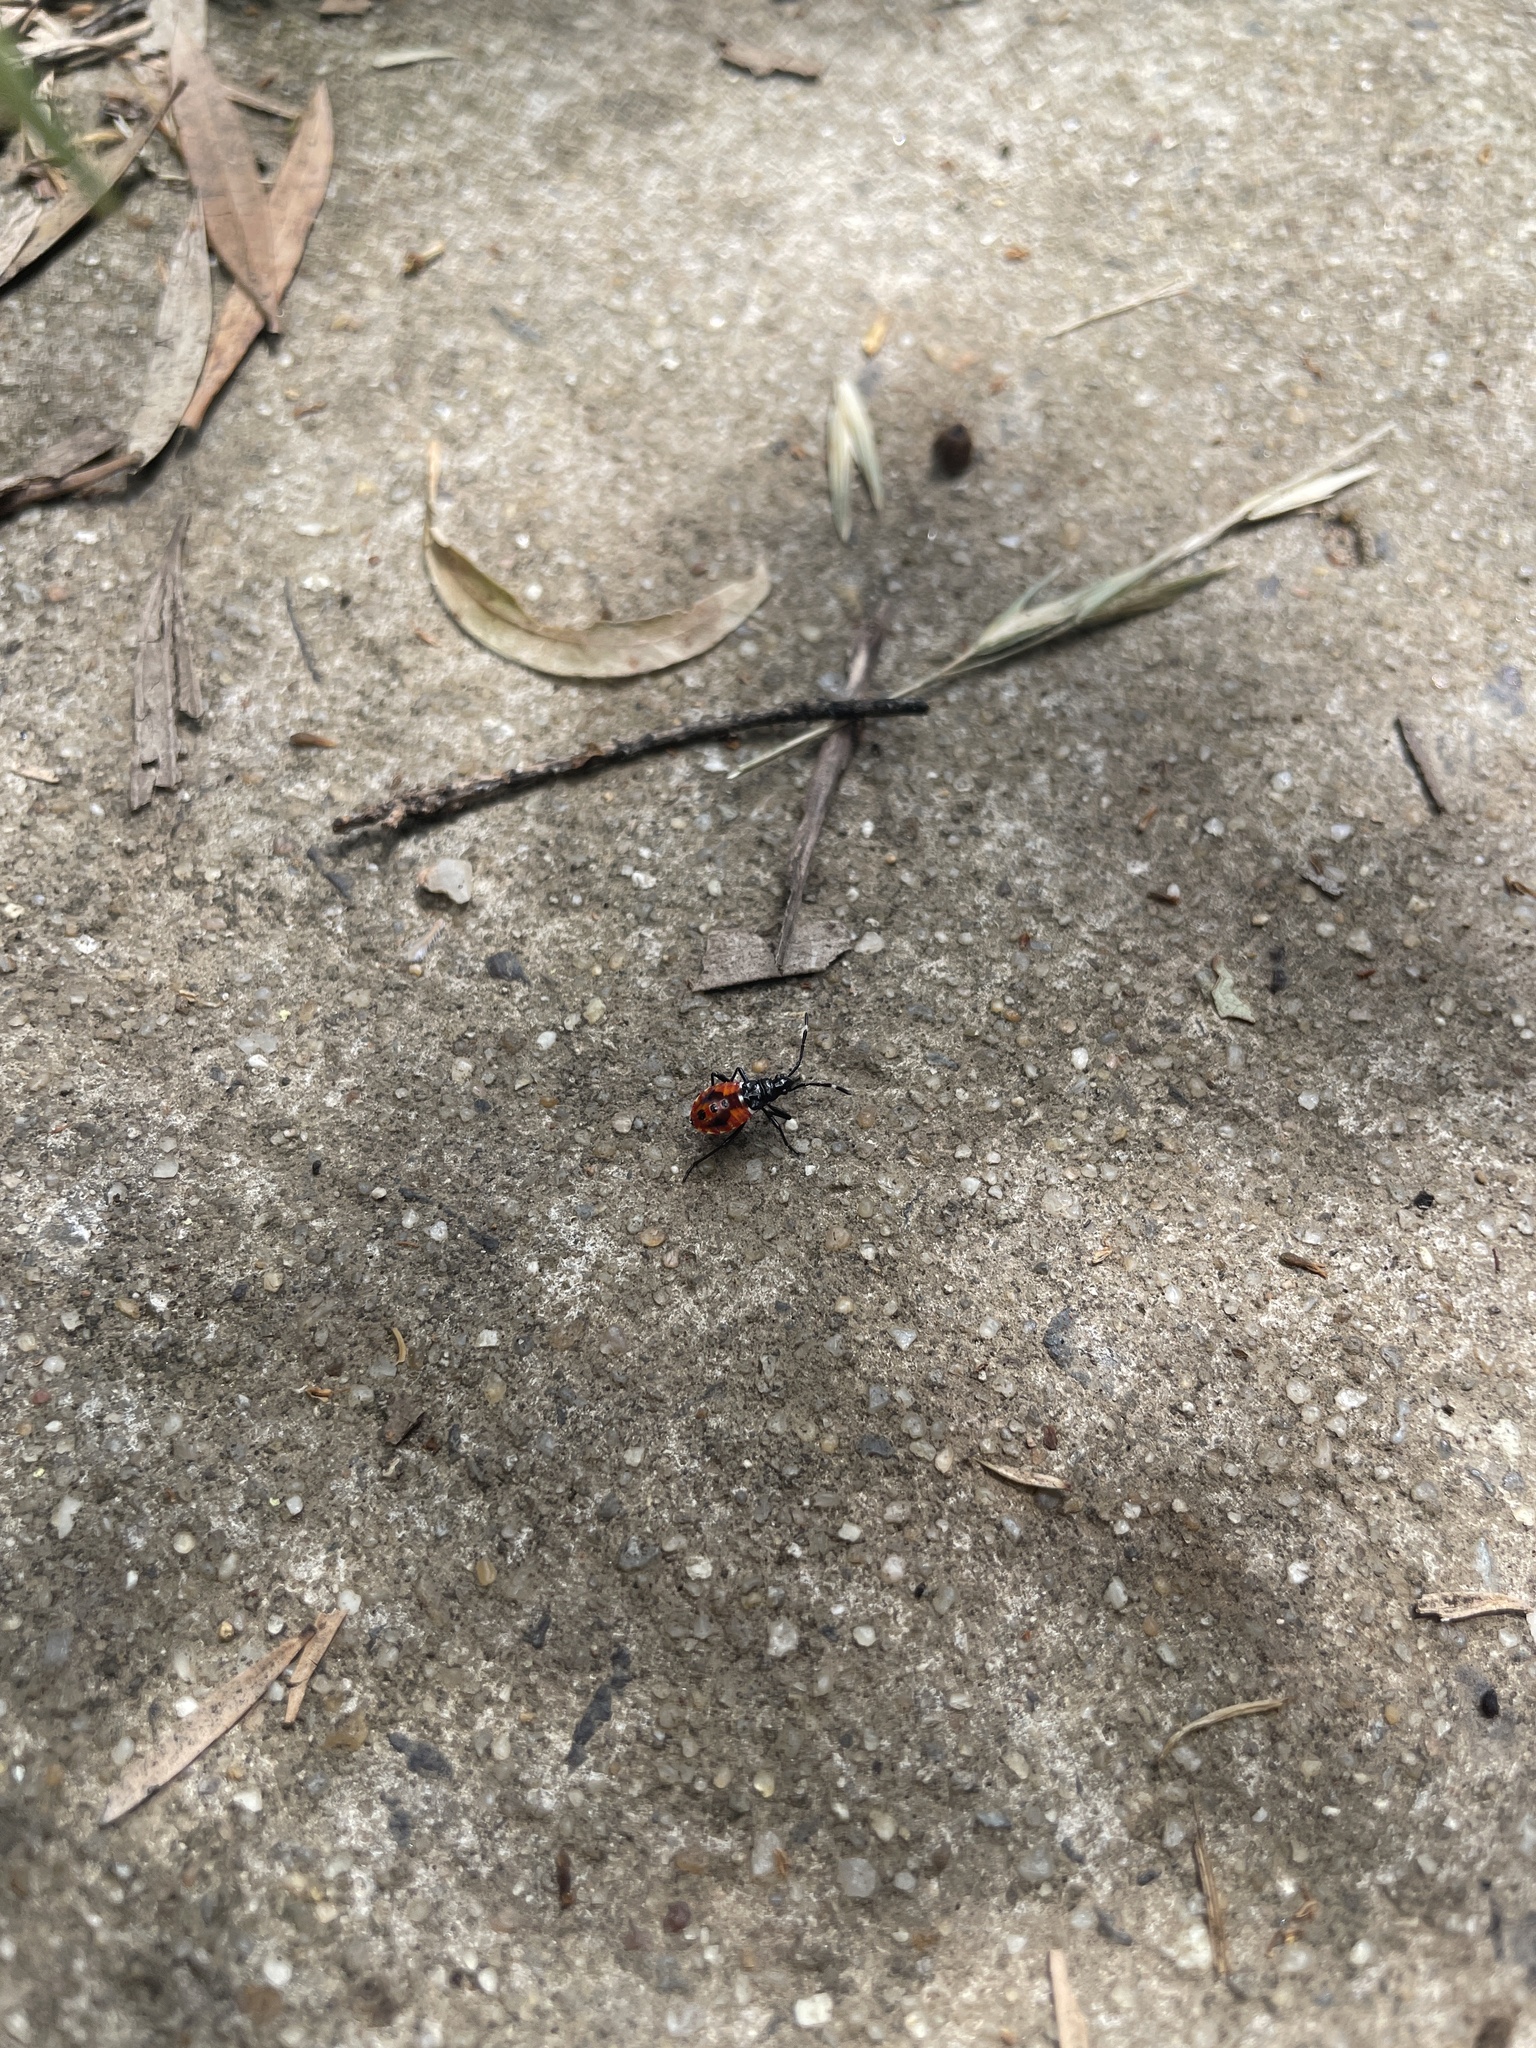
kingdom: Animalia
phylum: Arthropoda
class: Insecta
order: Hemiptera
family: Pyrrhocoridae
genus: Dindymus
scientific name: Dindymus
